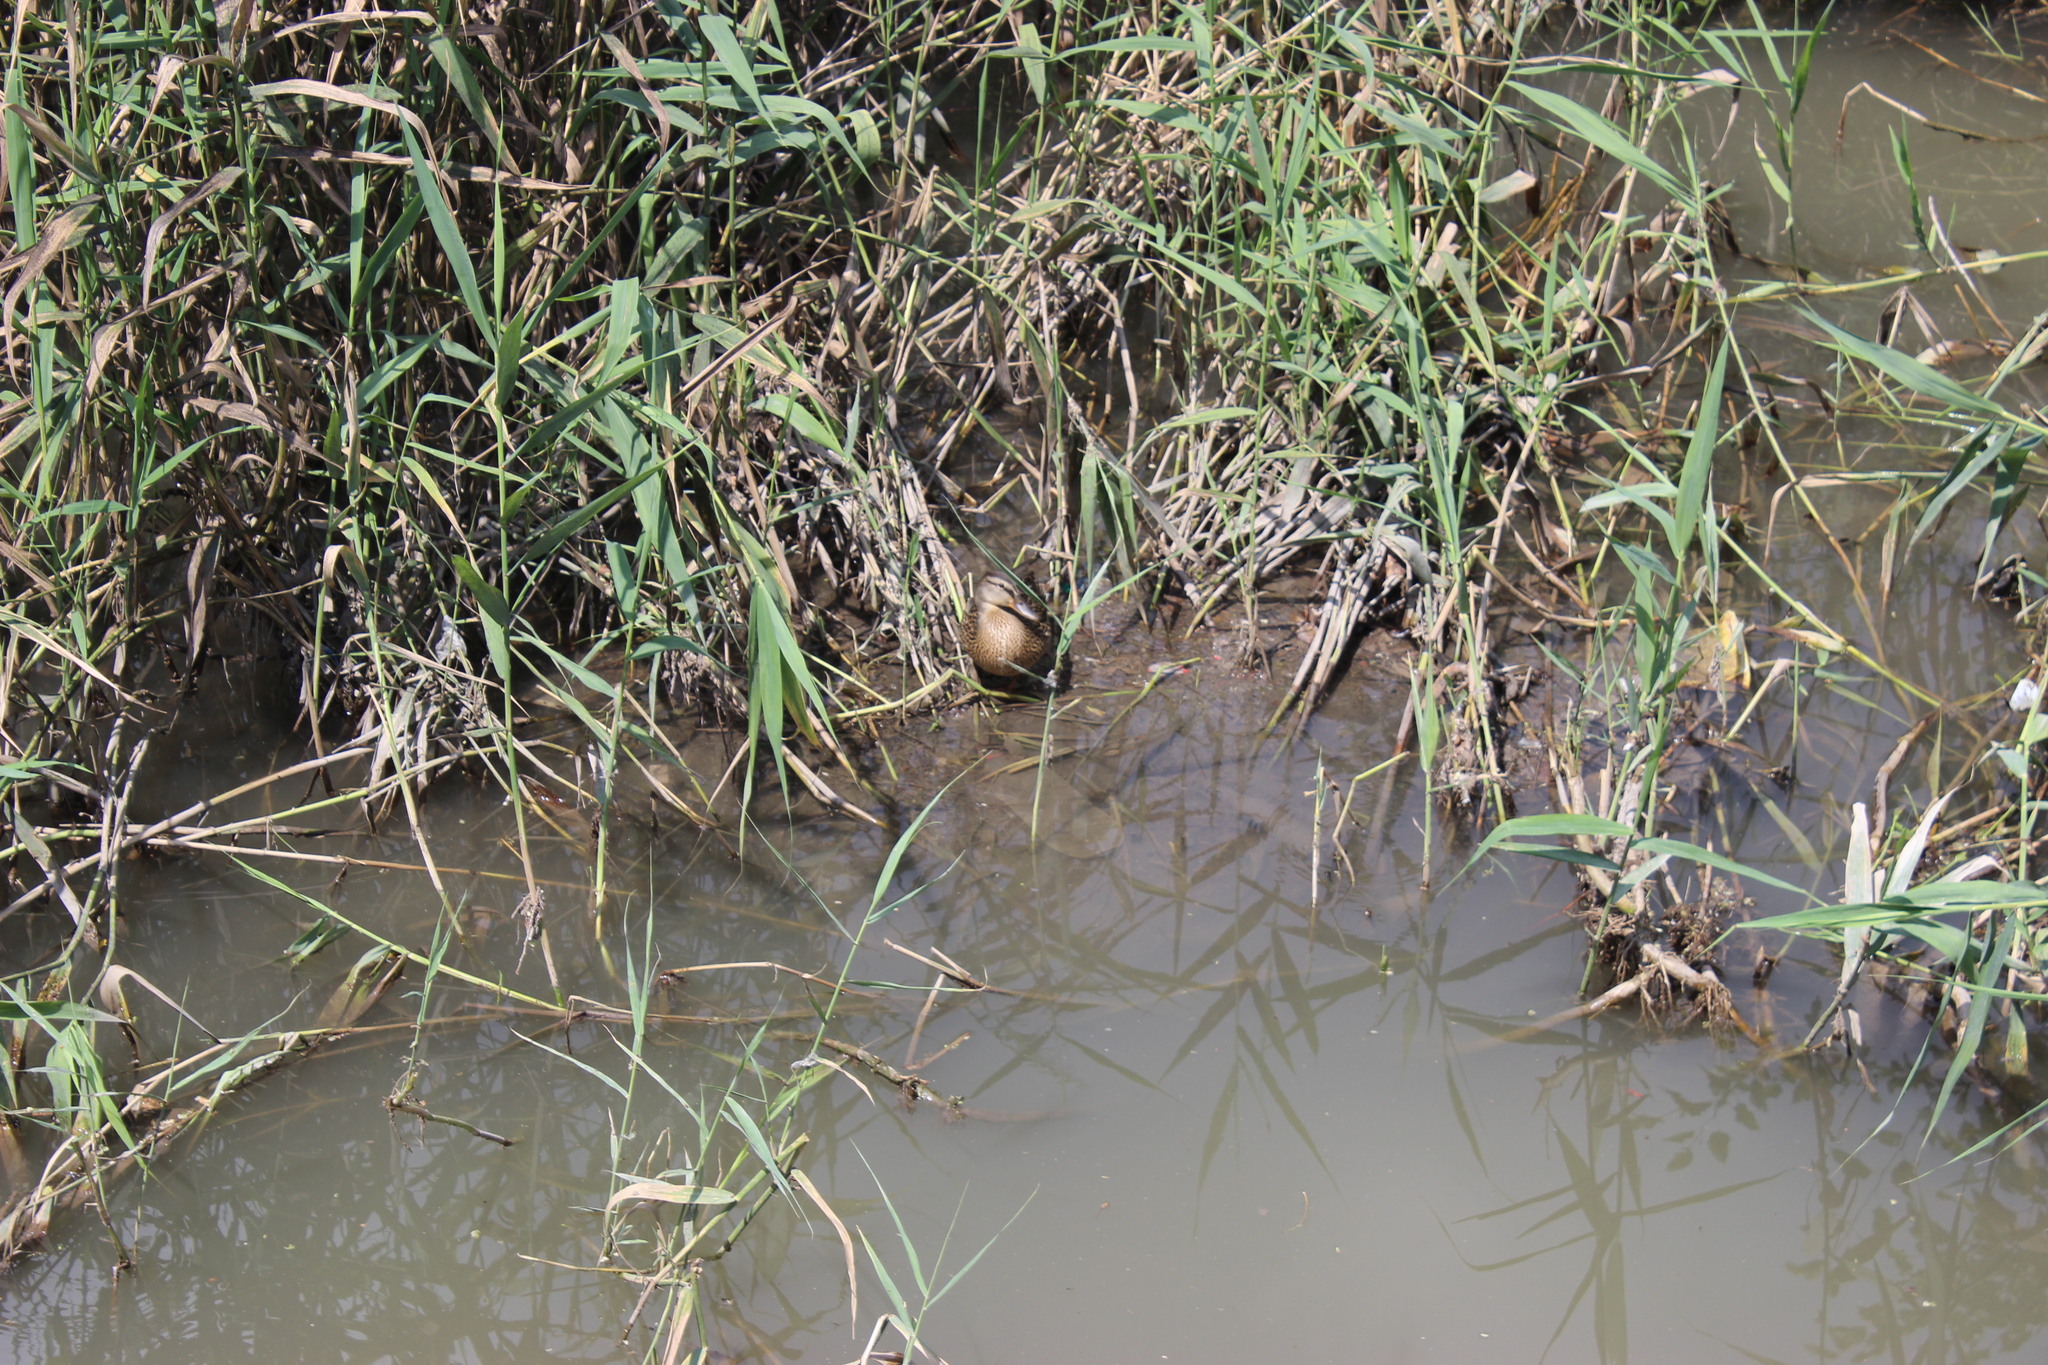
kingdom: Animalia
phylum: Chordata
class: Aves
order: Anseriformes
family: Anatidae
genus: Anas
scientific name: Anas platyrhynchos
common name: Mallard
